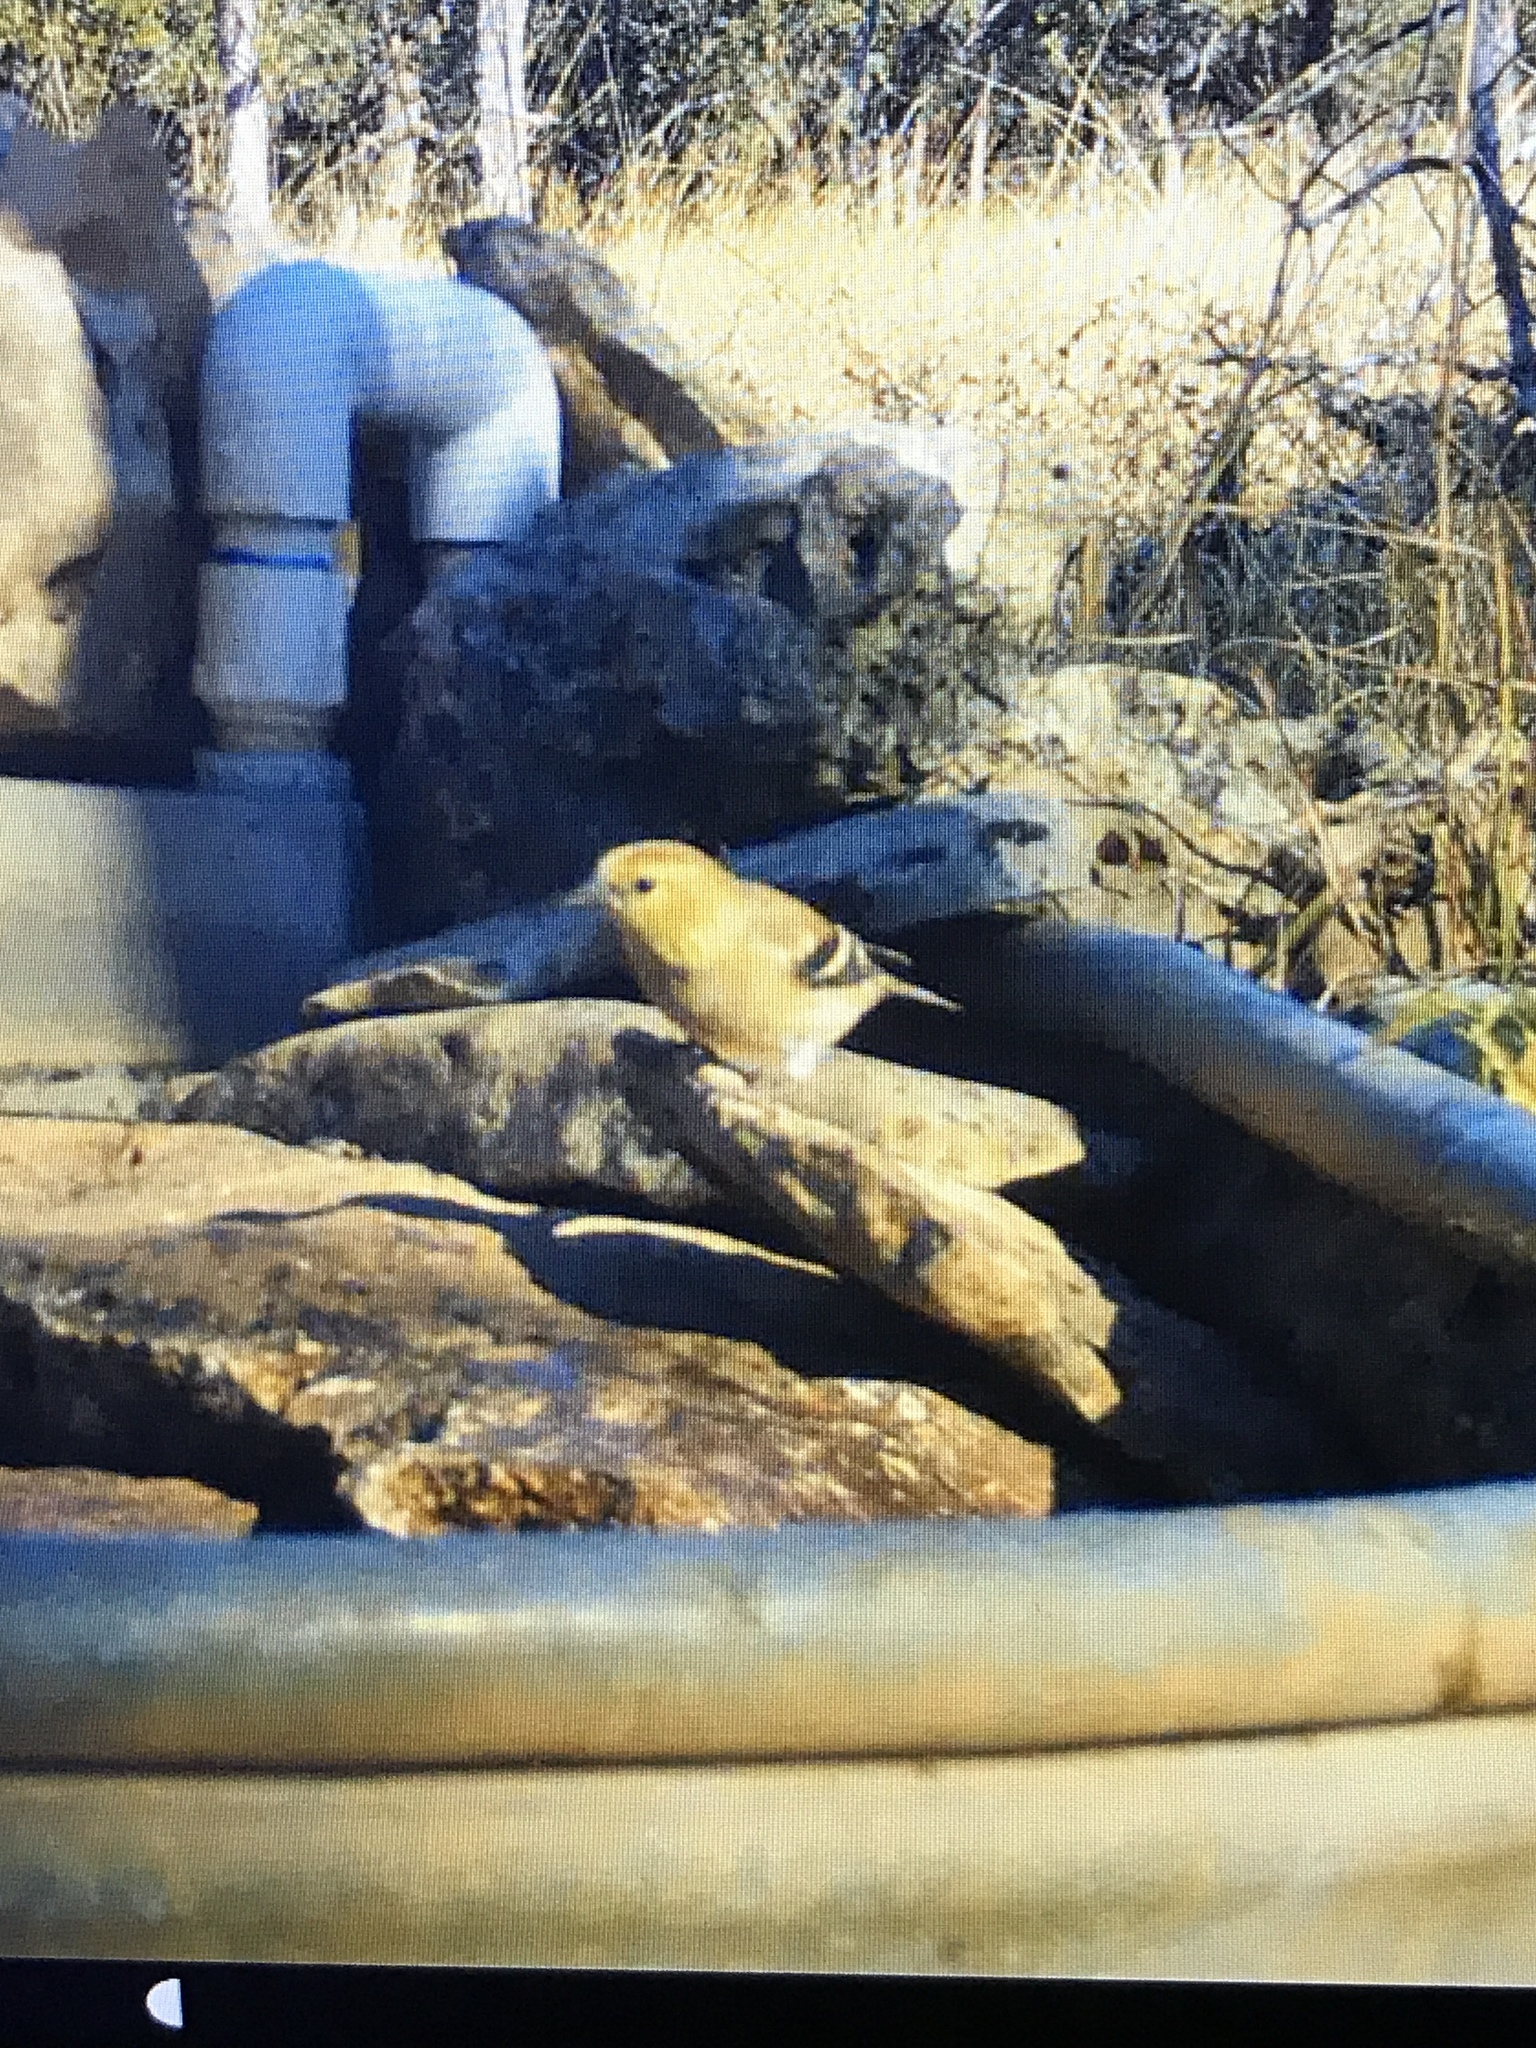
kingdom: Animalia
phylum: Chordata
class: Aves
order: Passeriformes
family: Fringillidae
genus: Spinus
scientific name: Spinus tristis
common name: American goldfinch
